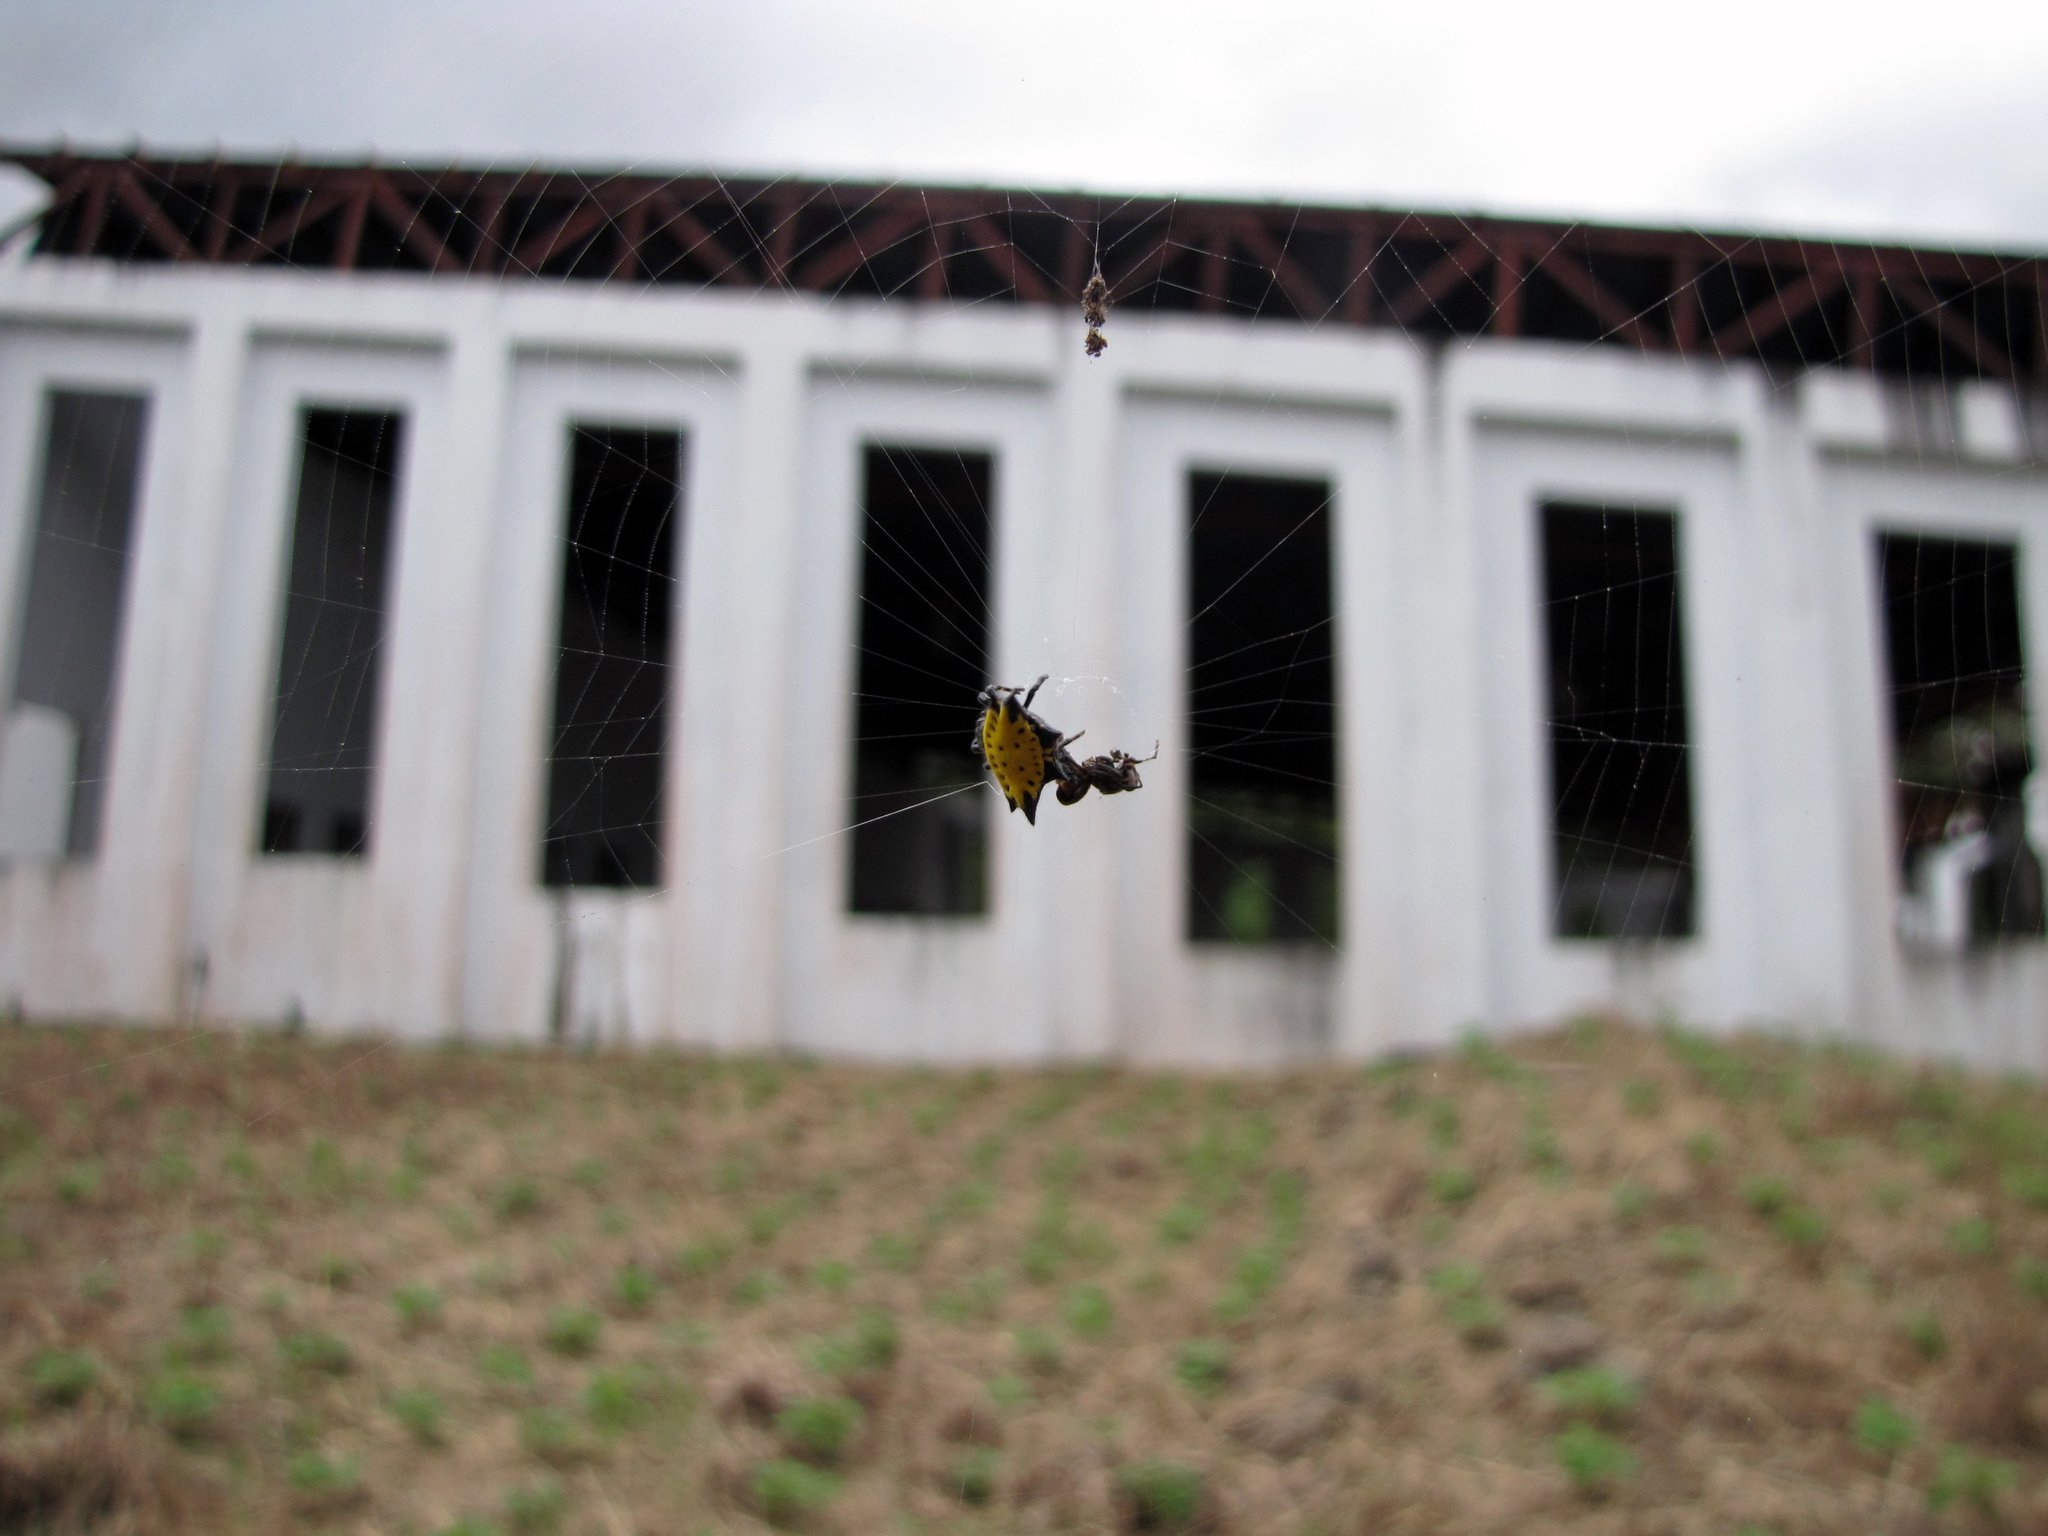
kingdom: Animalia
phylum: Arthropoda
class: Arachnida
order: Araneae
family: Araneidae
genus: Gasteracantha
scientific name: Gasteracantha cancriformis
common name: Orb weavers
